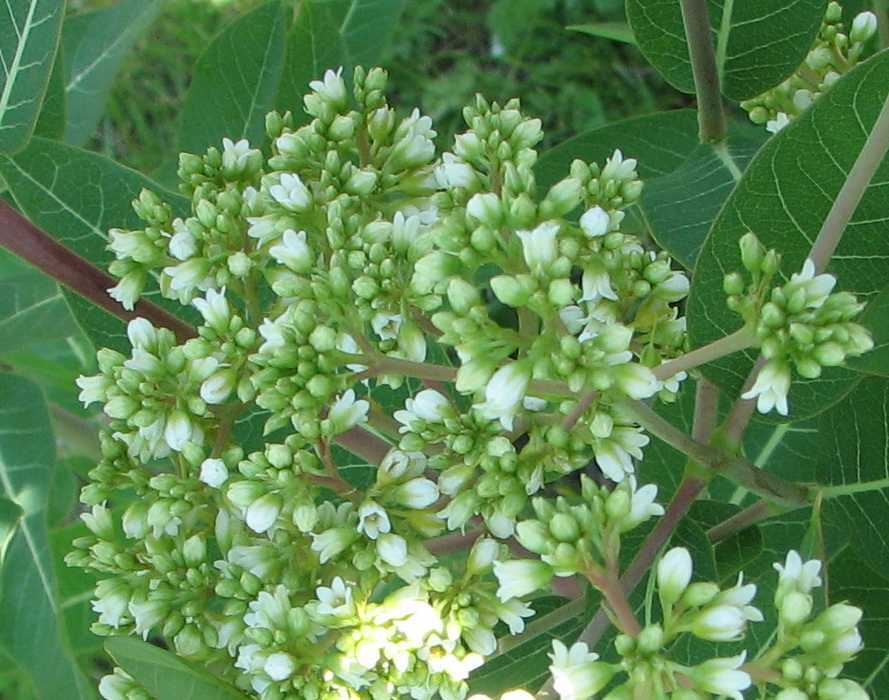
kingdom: Plantae
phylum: Tracheophyta
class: Magnoliopsida
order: Gentianales
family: Apocynaceae
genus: Apocynum
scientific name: Apocynum cannabinum
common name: Hemp dogbane
